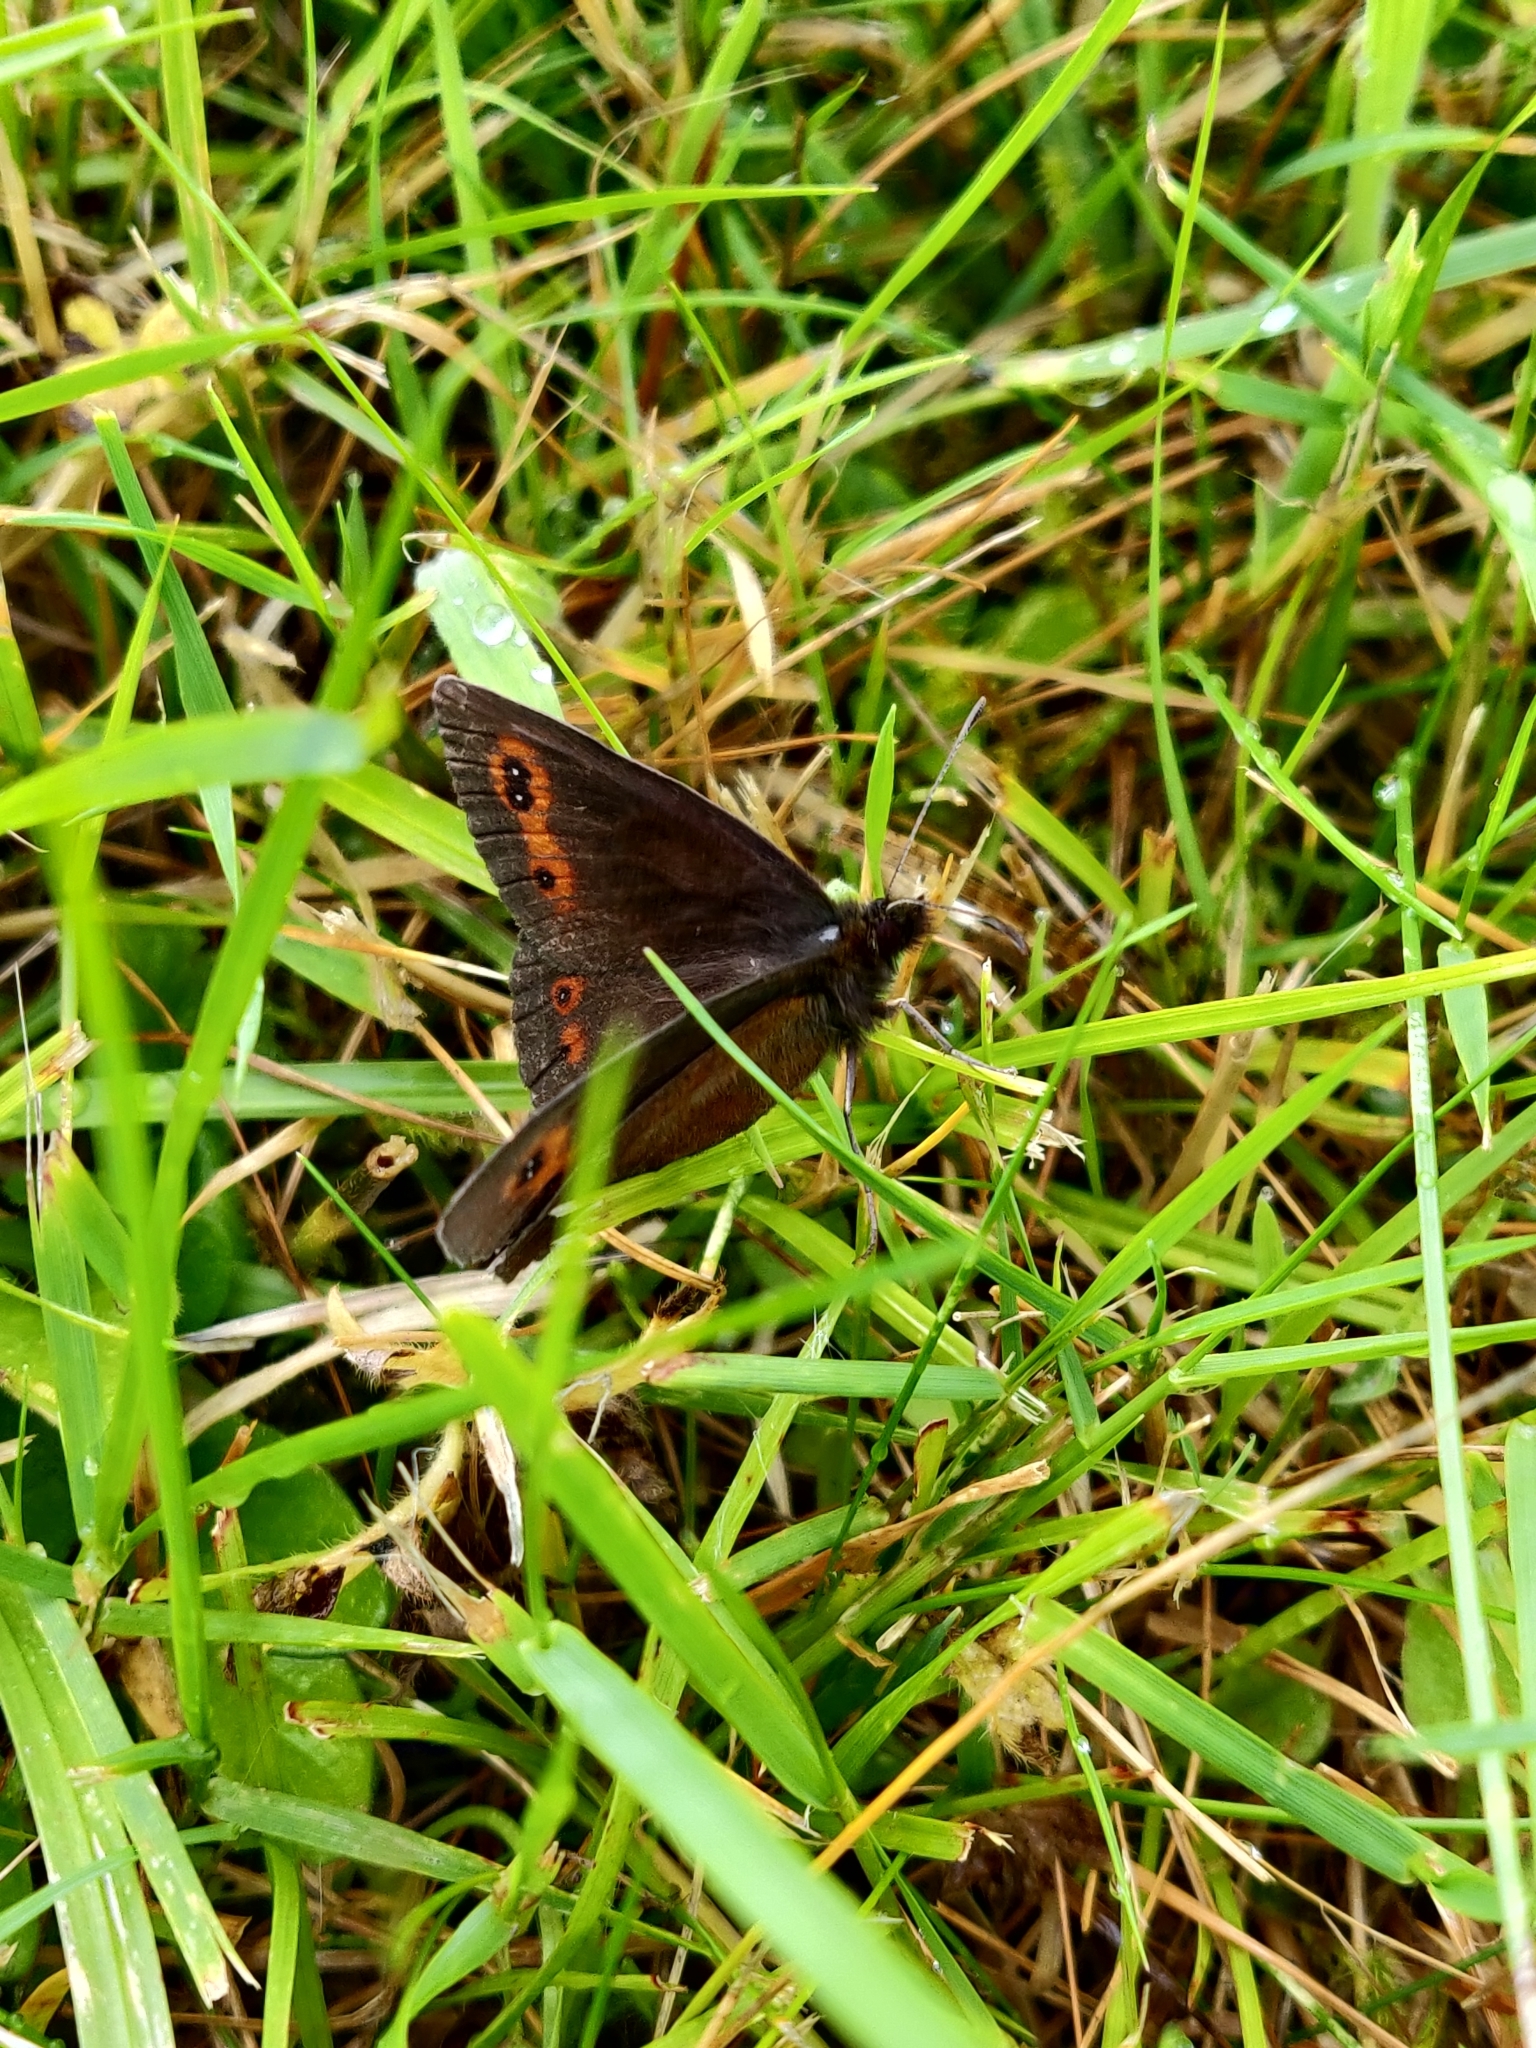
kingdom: Animalia
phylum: Arthropoda
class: Insecta
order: Lepidoptera
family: Nymphalidae
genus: Erebia
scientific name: Erebia aethiops
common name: Scotch argus
